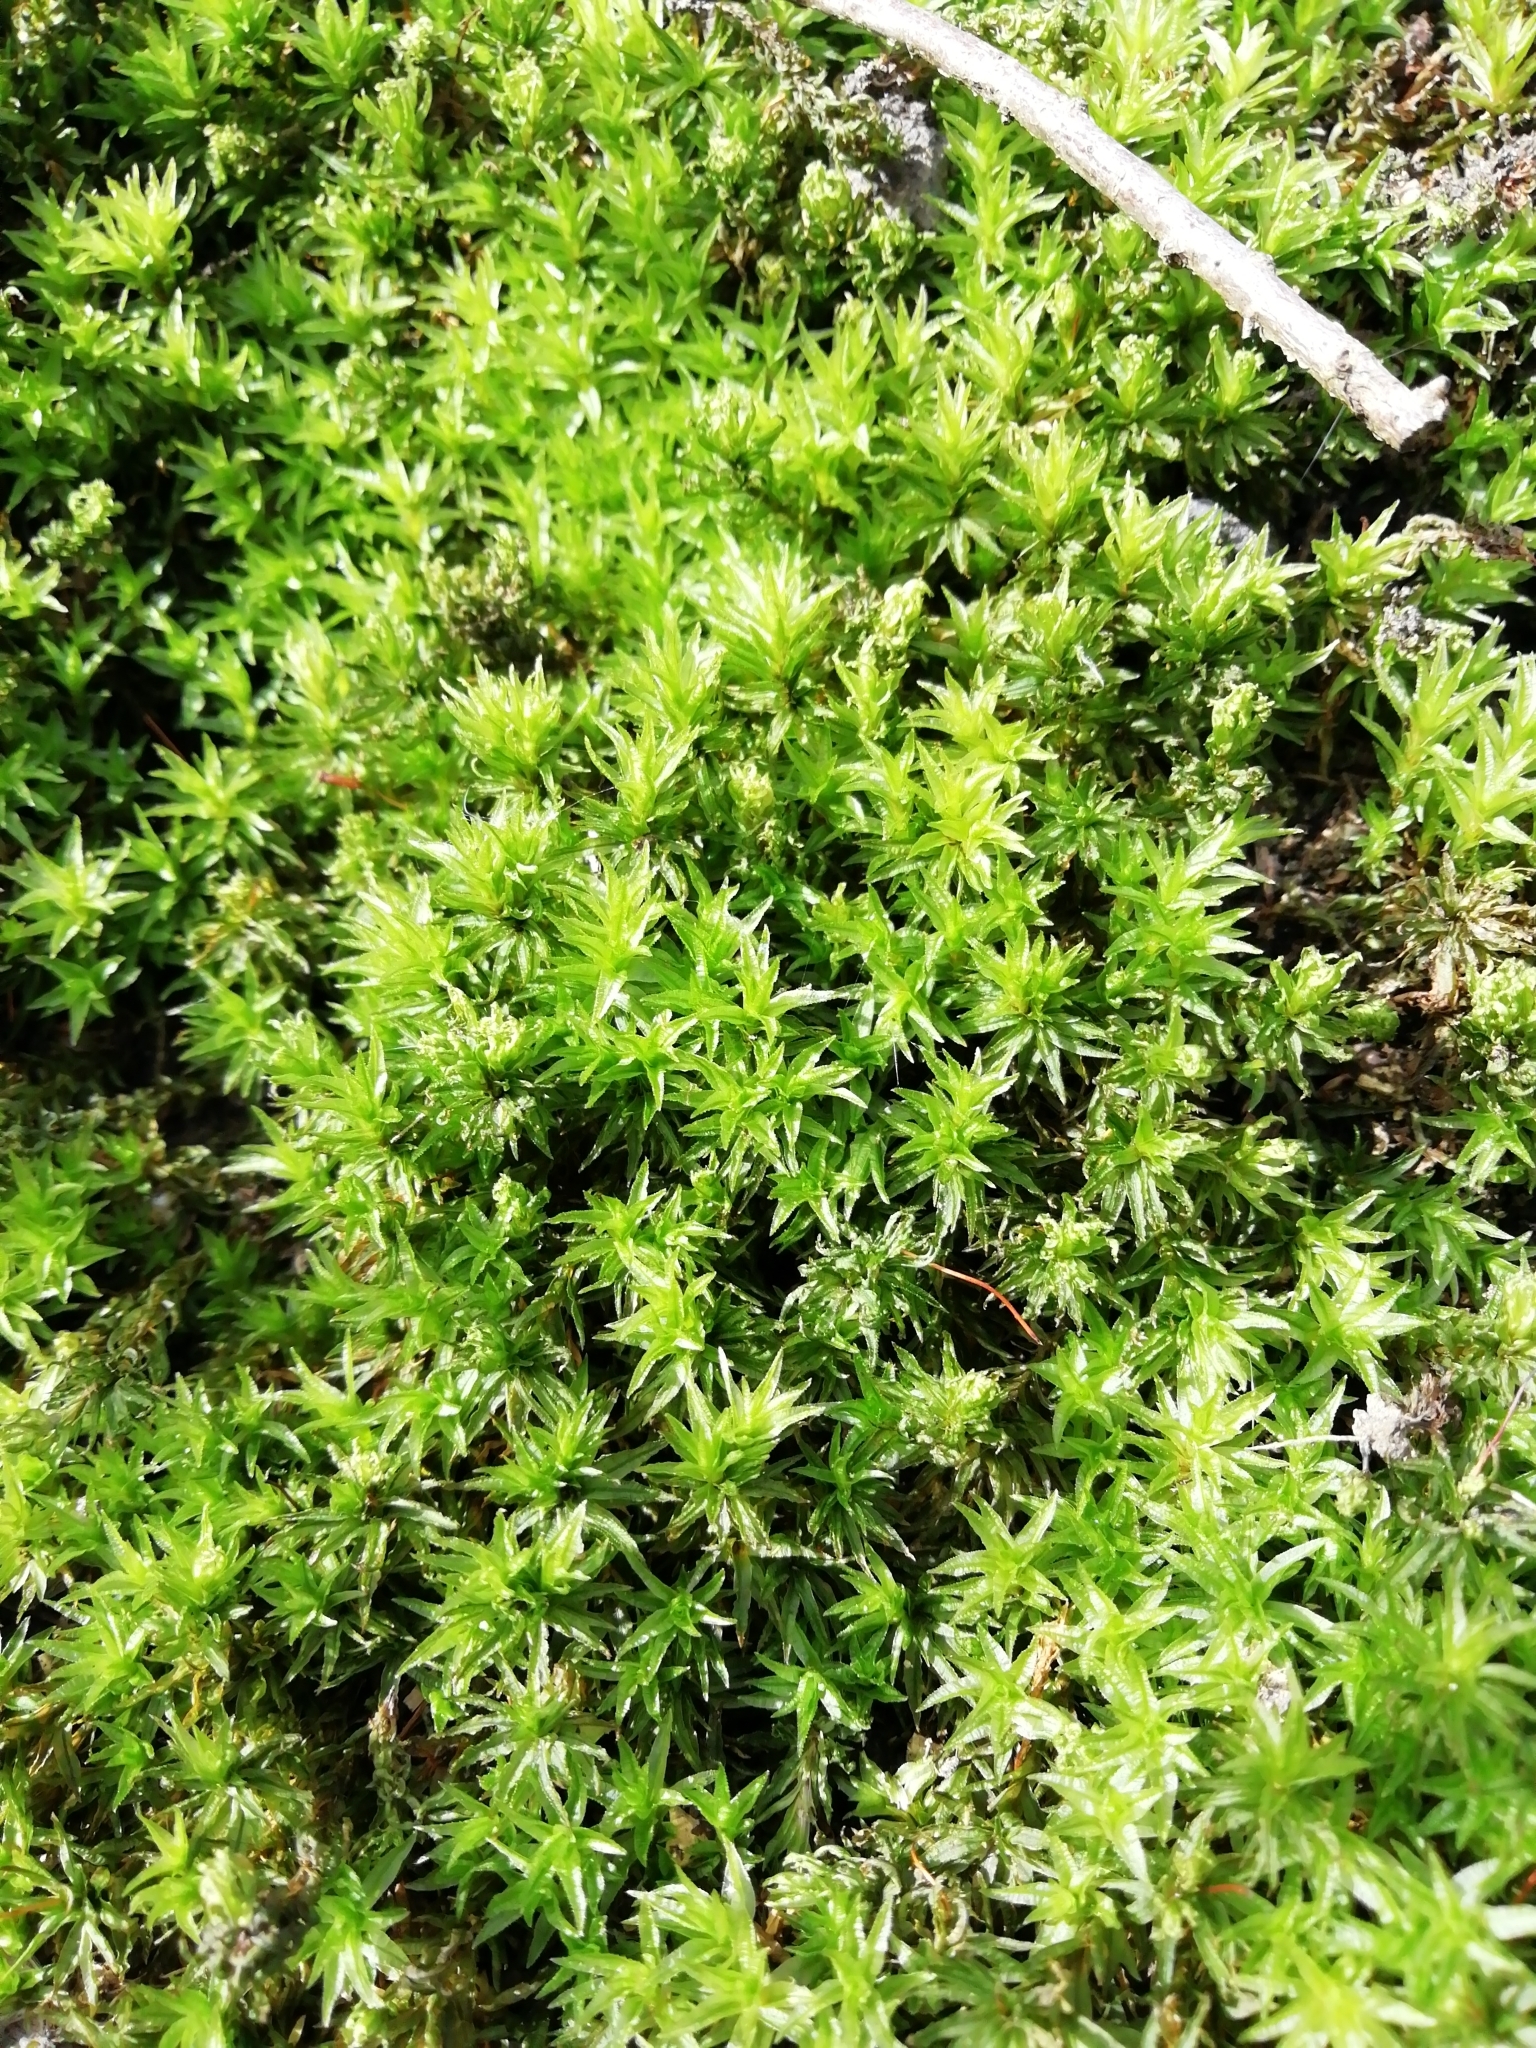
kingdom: Plantae
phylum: Bryophyta
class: Polytrichopsida
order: Polytrichales
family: Polytrichaceae
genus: Atrichum
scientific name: Atrichum undulatum
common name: Common smoothcap
